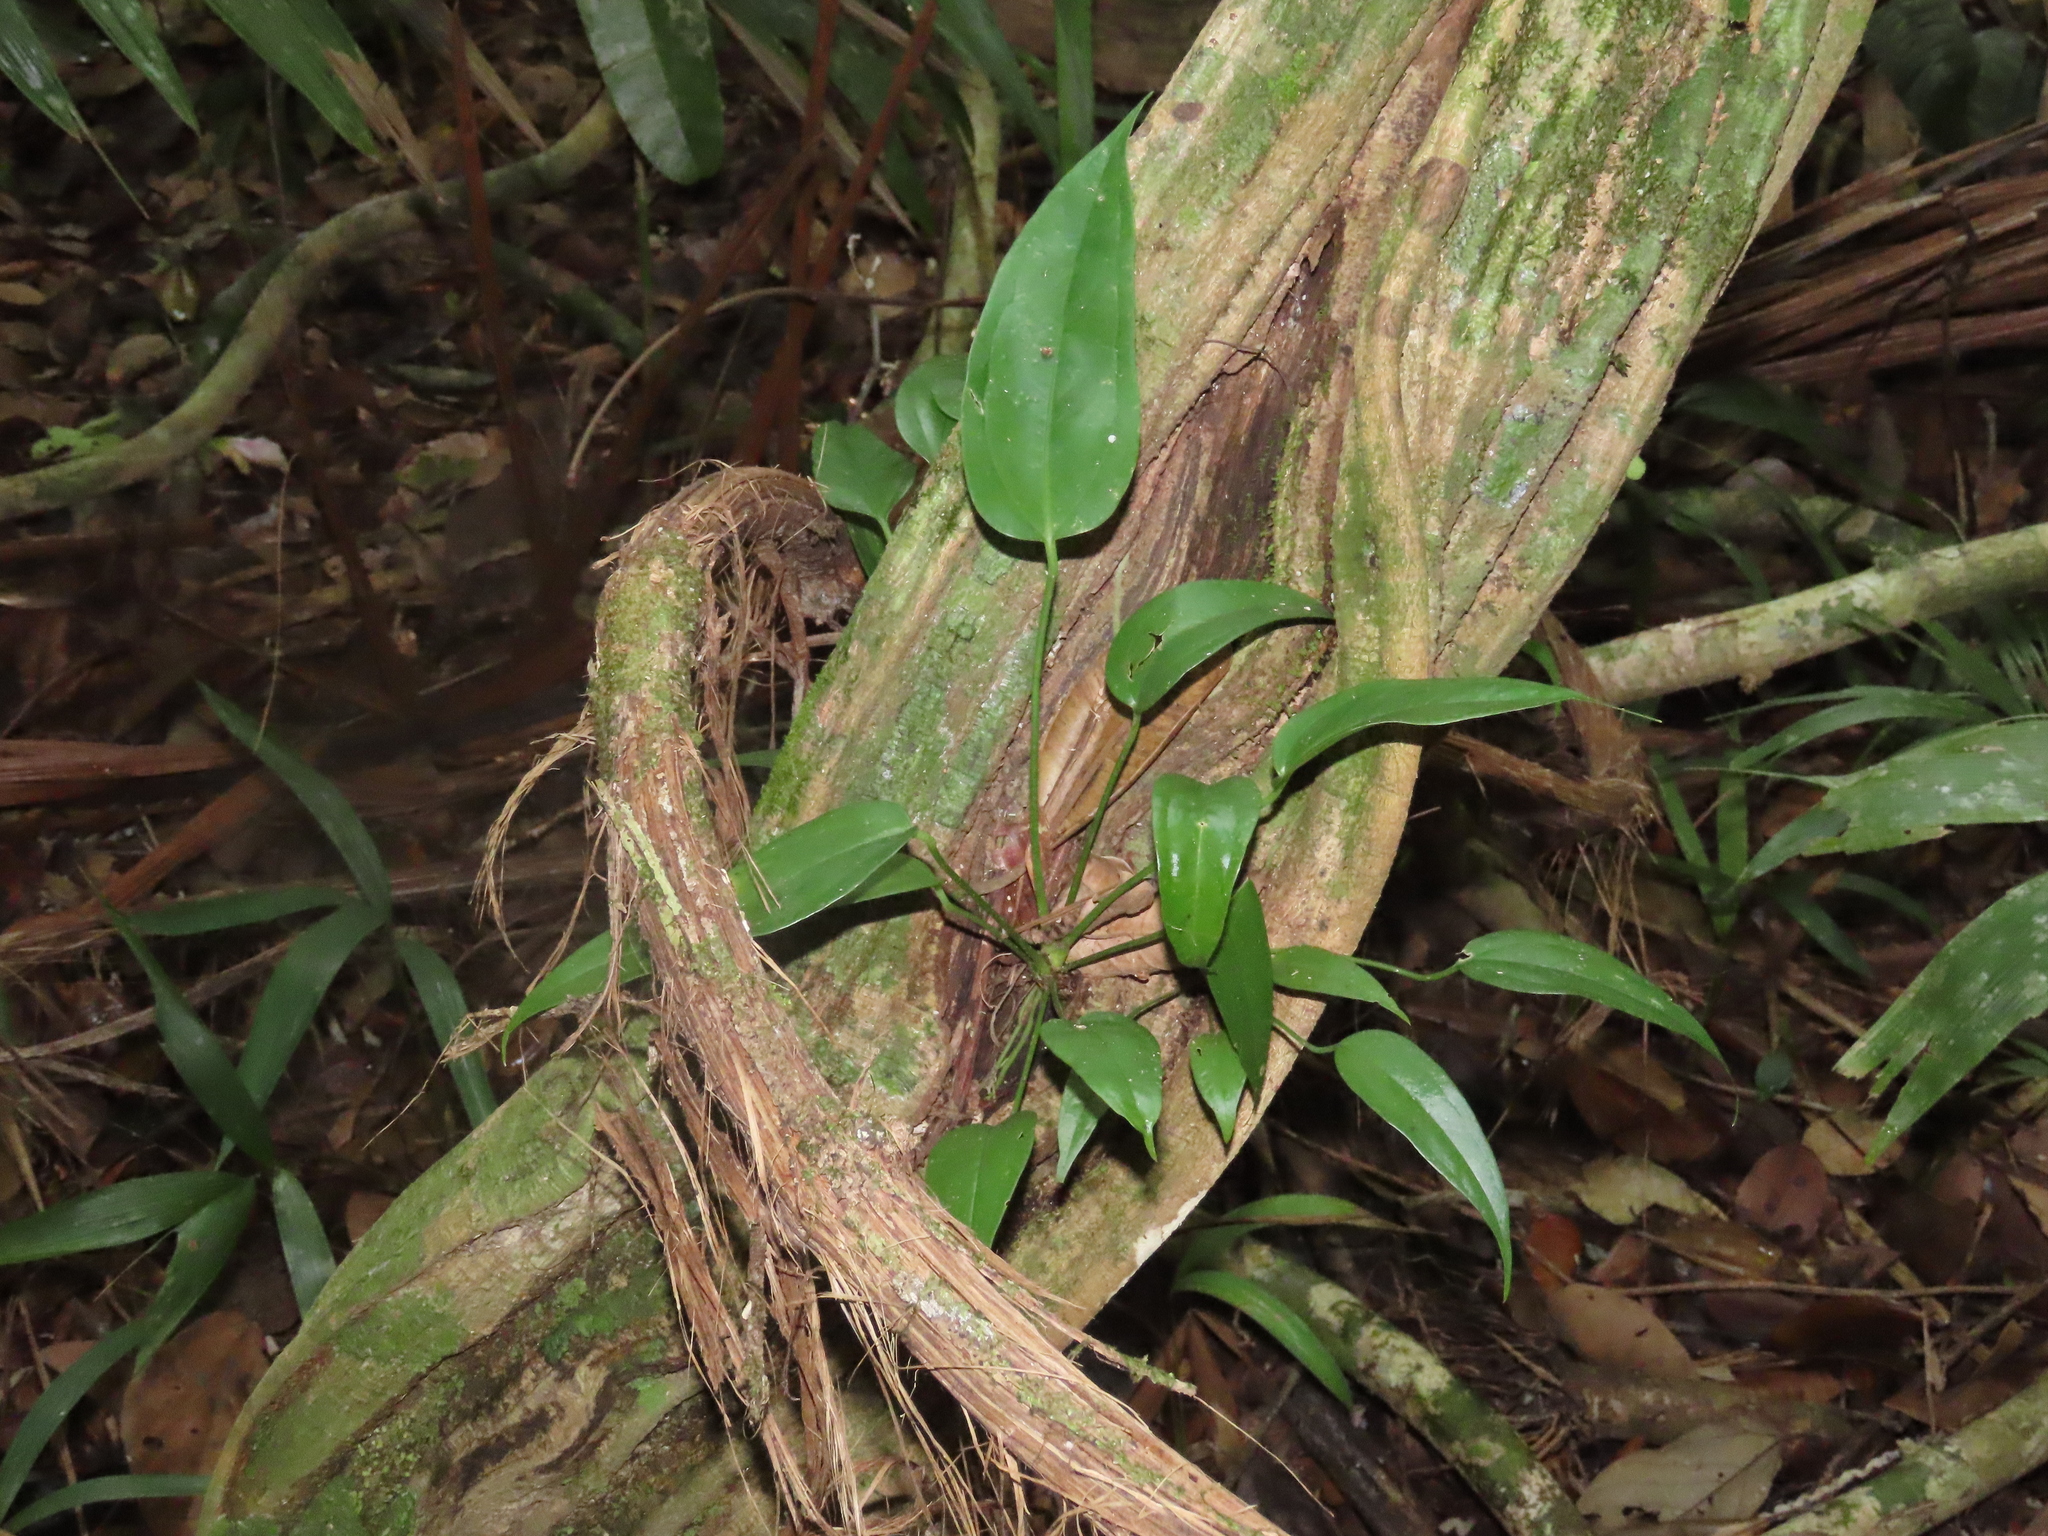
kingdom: Plantae
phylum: Tracheophyta
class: Liliopsida
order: Alismatales
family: Araceae
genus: Anthurium
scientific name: Anthurium clavigerum
